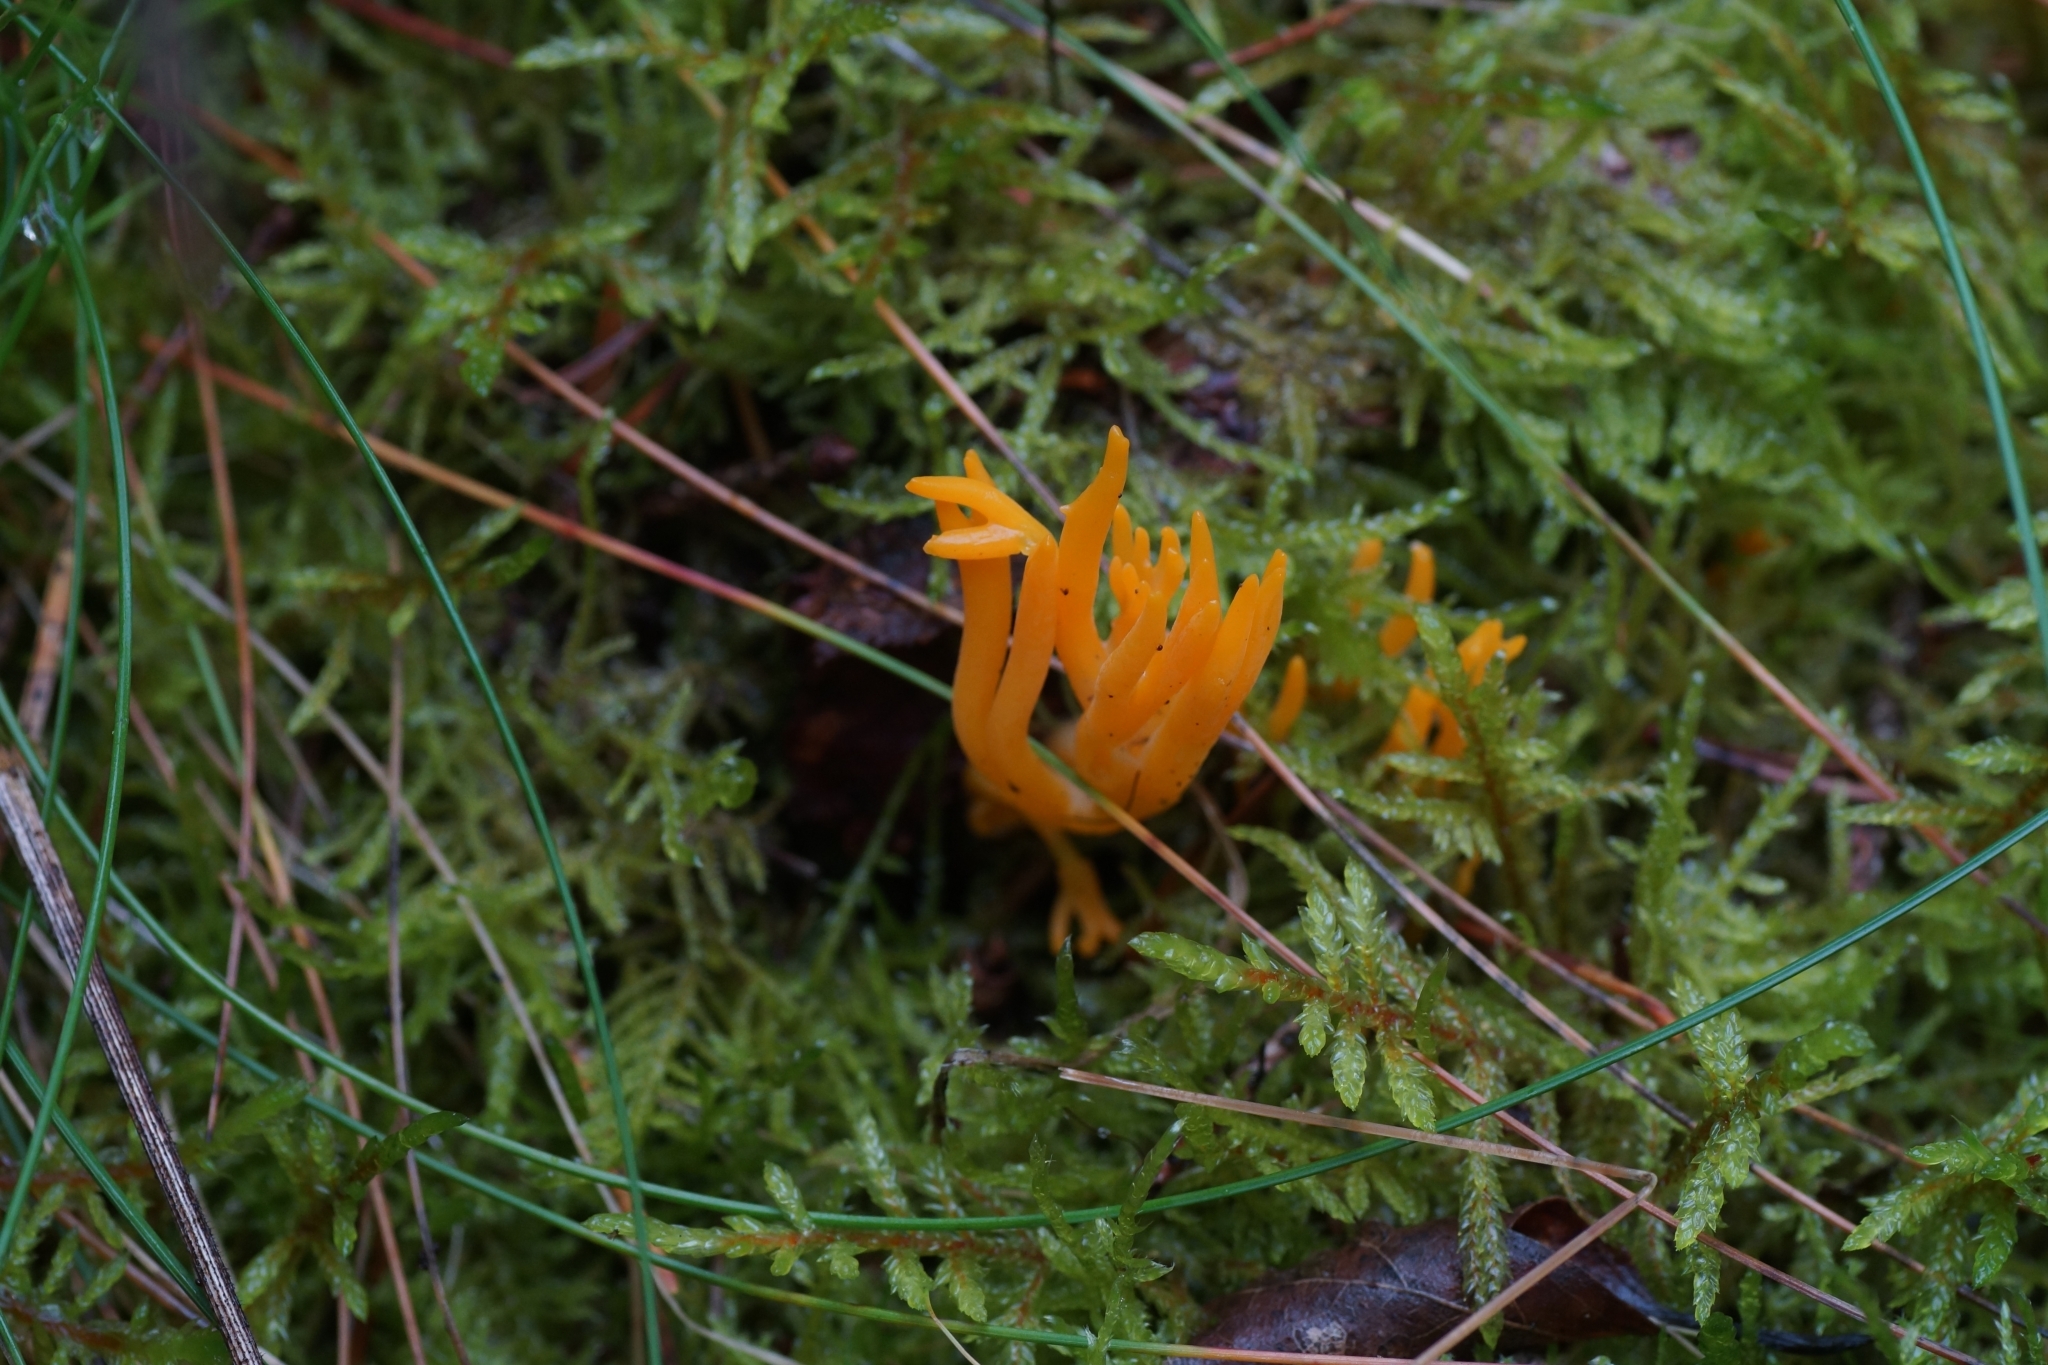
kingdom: Fungi
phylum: Basidiomycota
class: Dacrymycetes
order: Dacrymycetales
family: Dacrymycetaceae
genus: Calocera
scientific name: Calocera viscosa
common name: Yellow stagshorn
